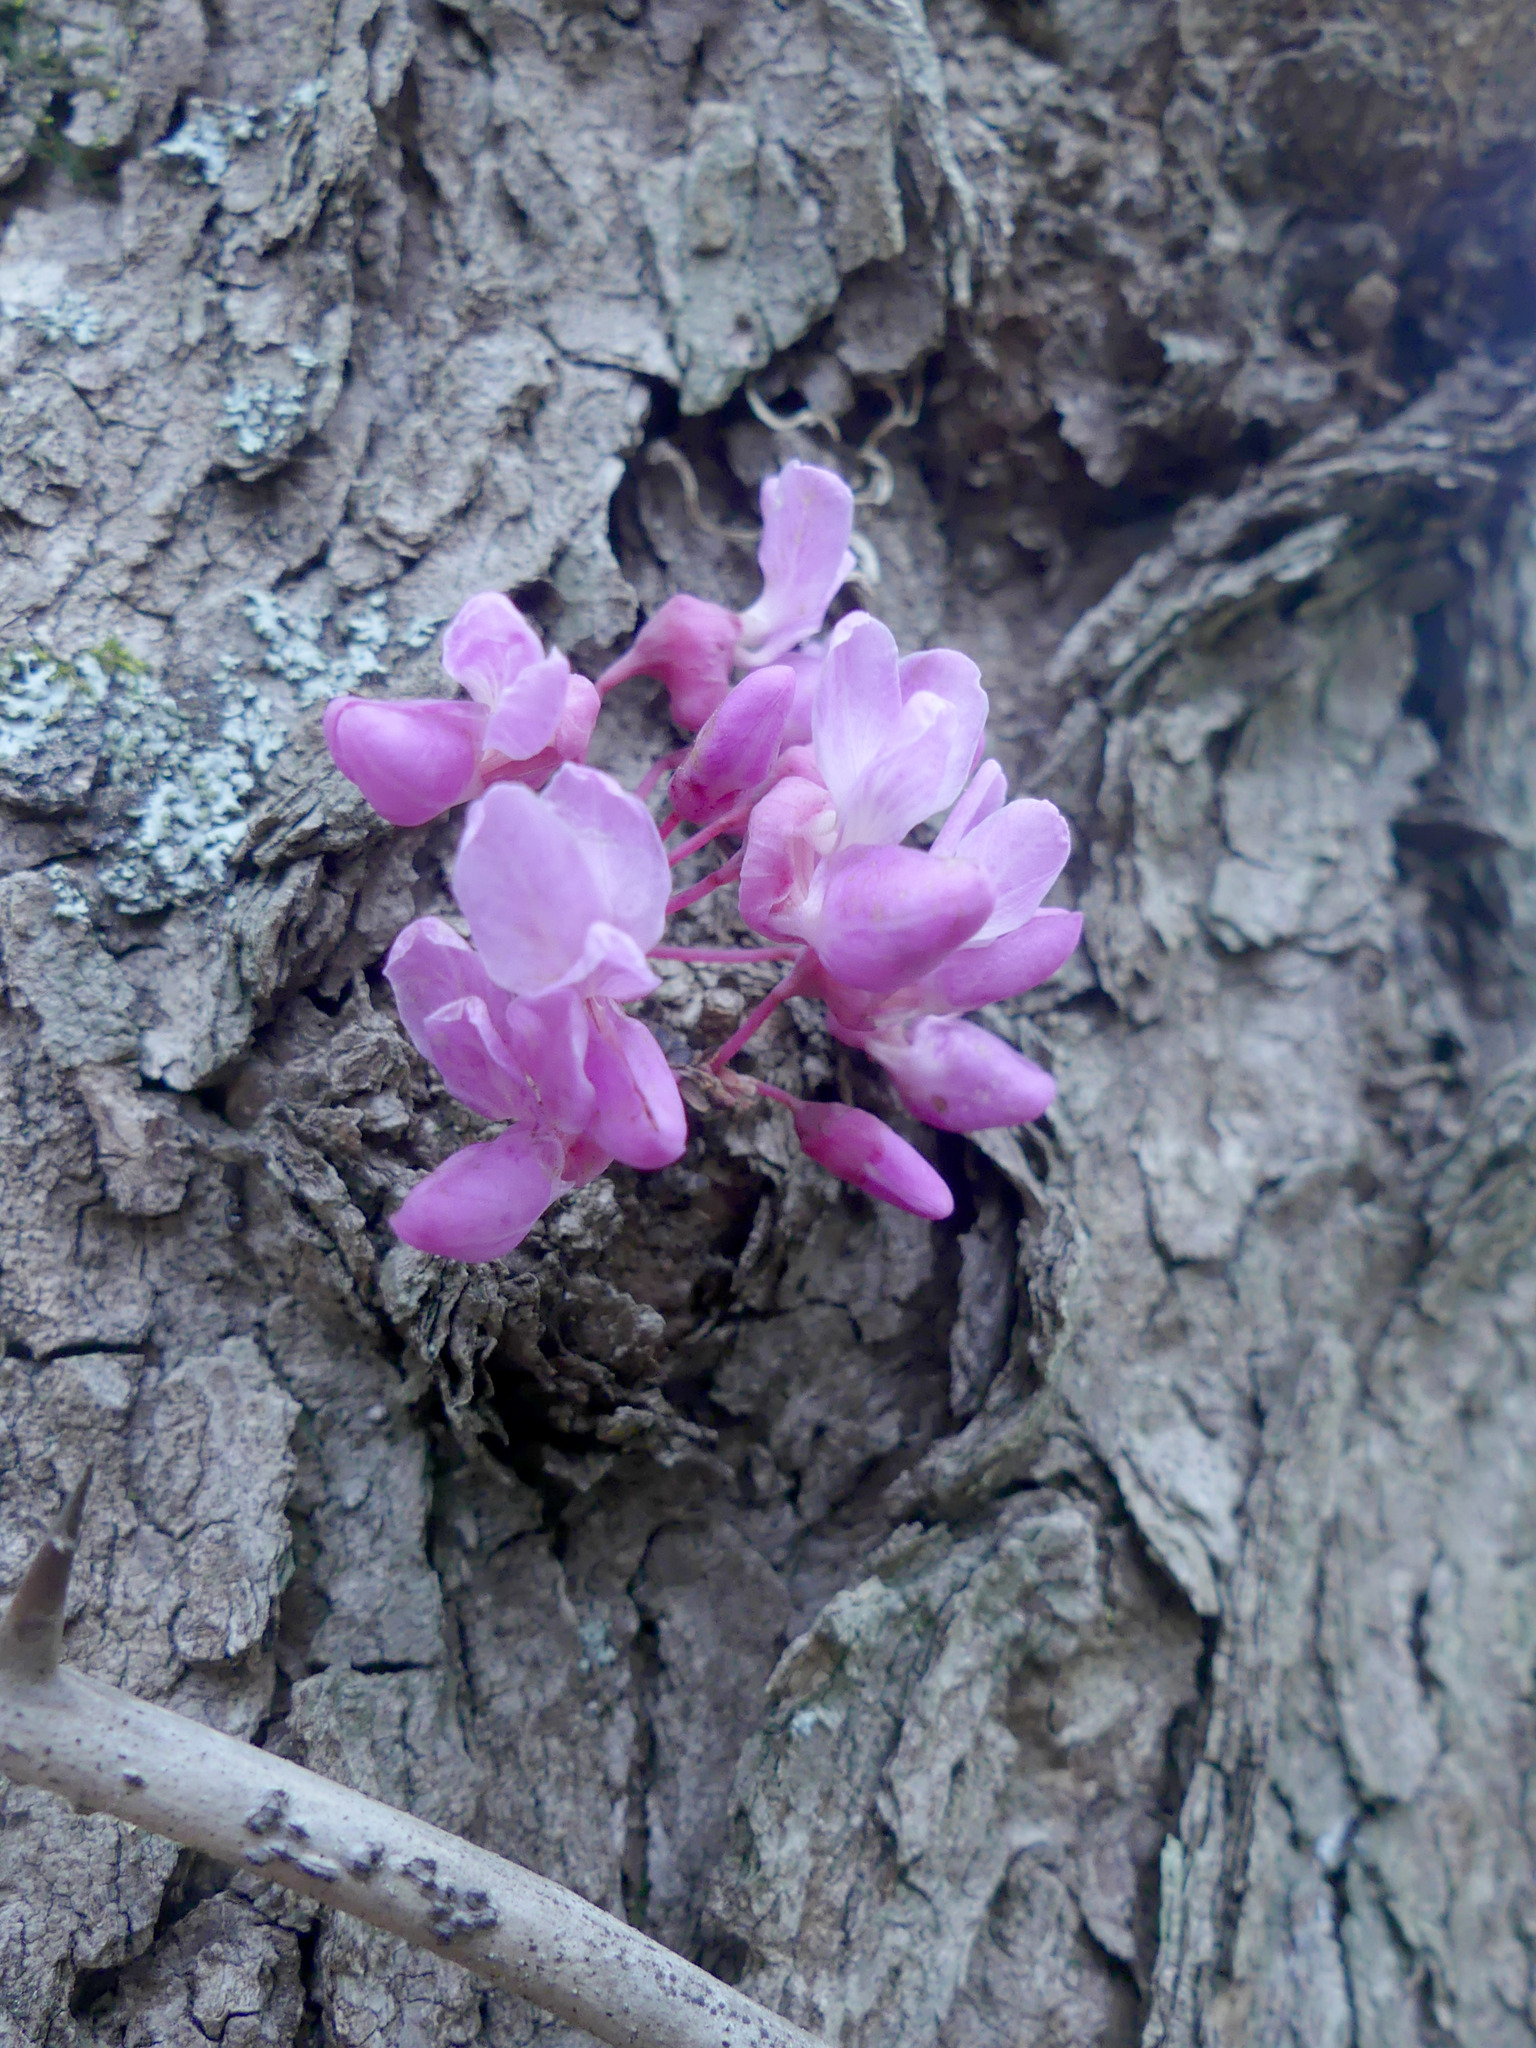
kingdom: Plantae
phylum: Tracheophyta
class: Magnoliopsida
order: Fabales
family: Fabaceae
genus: Cercis
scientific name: Cercis canadensis
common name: Eastern redbud
